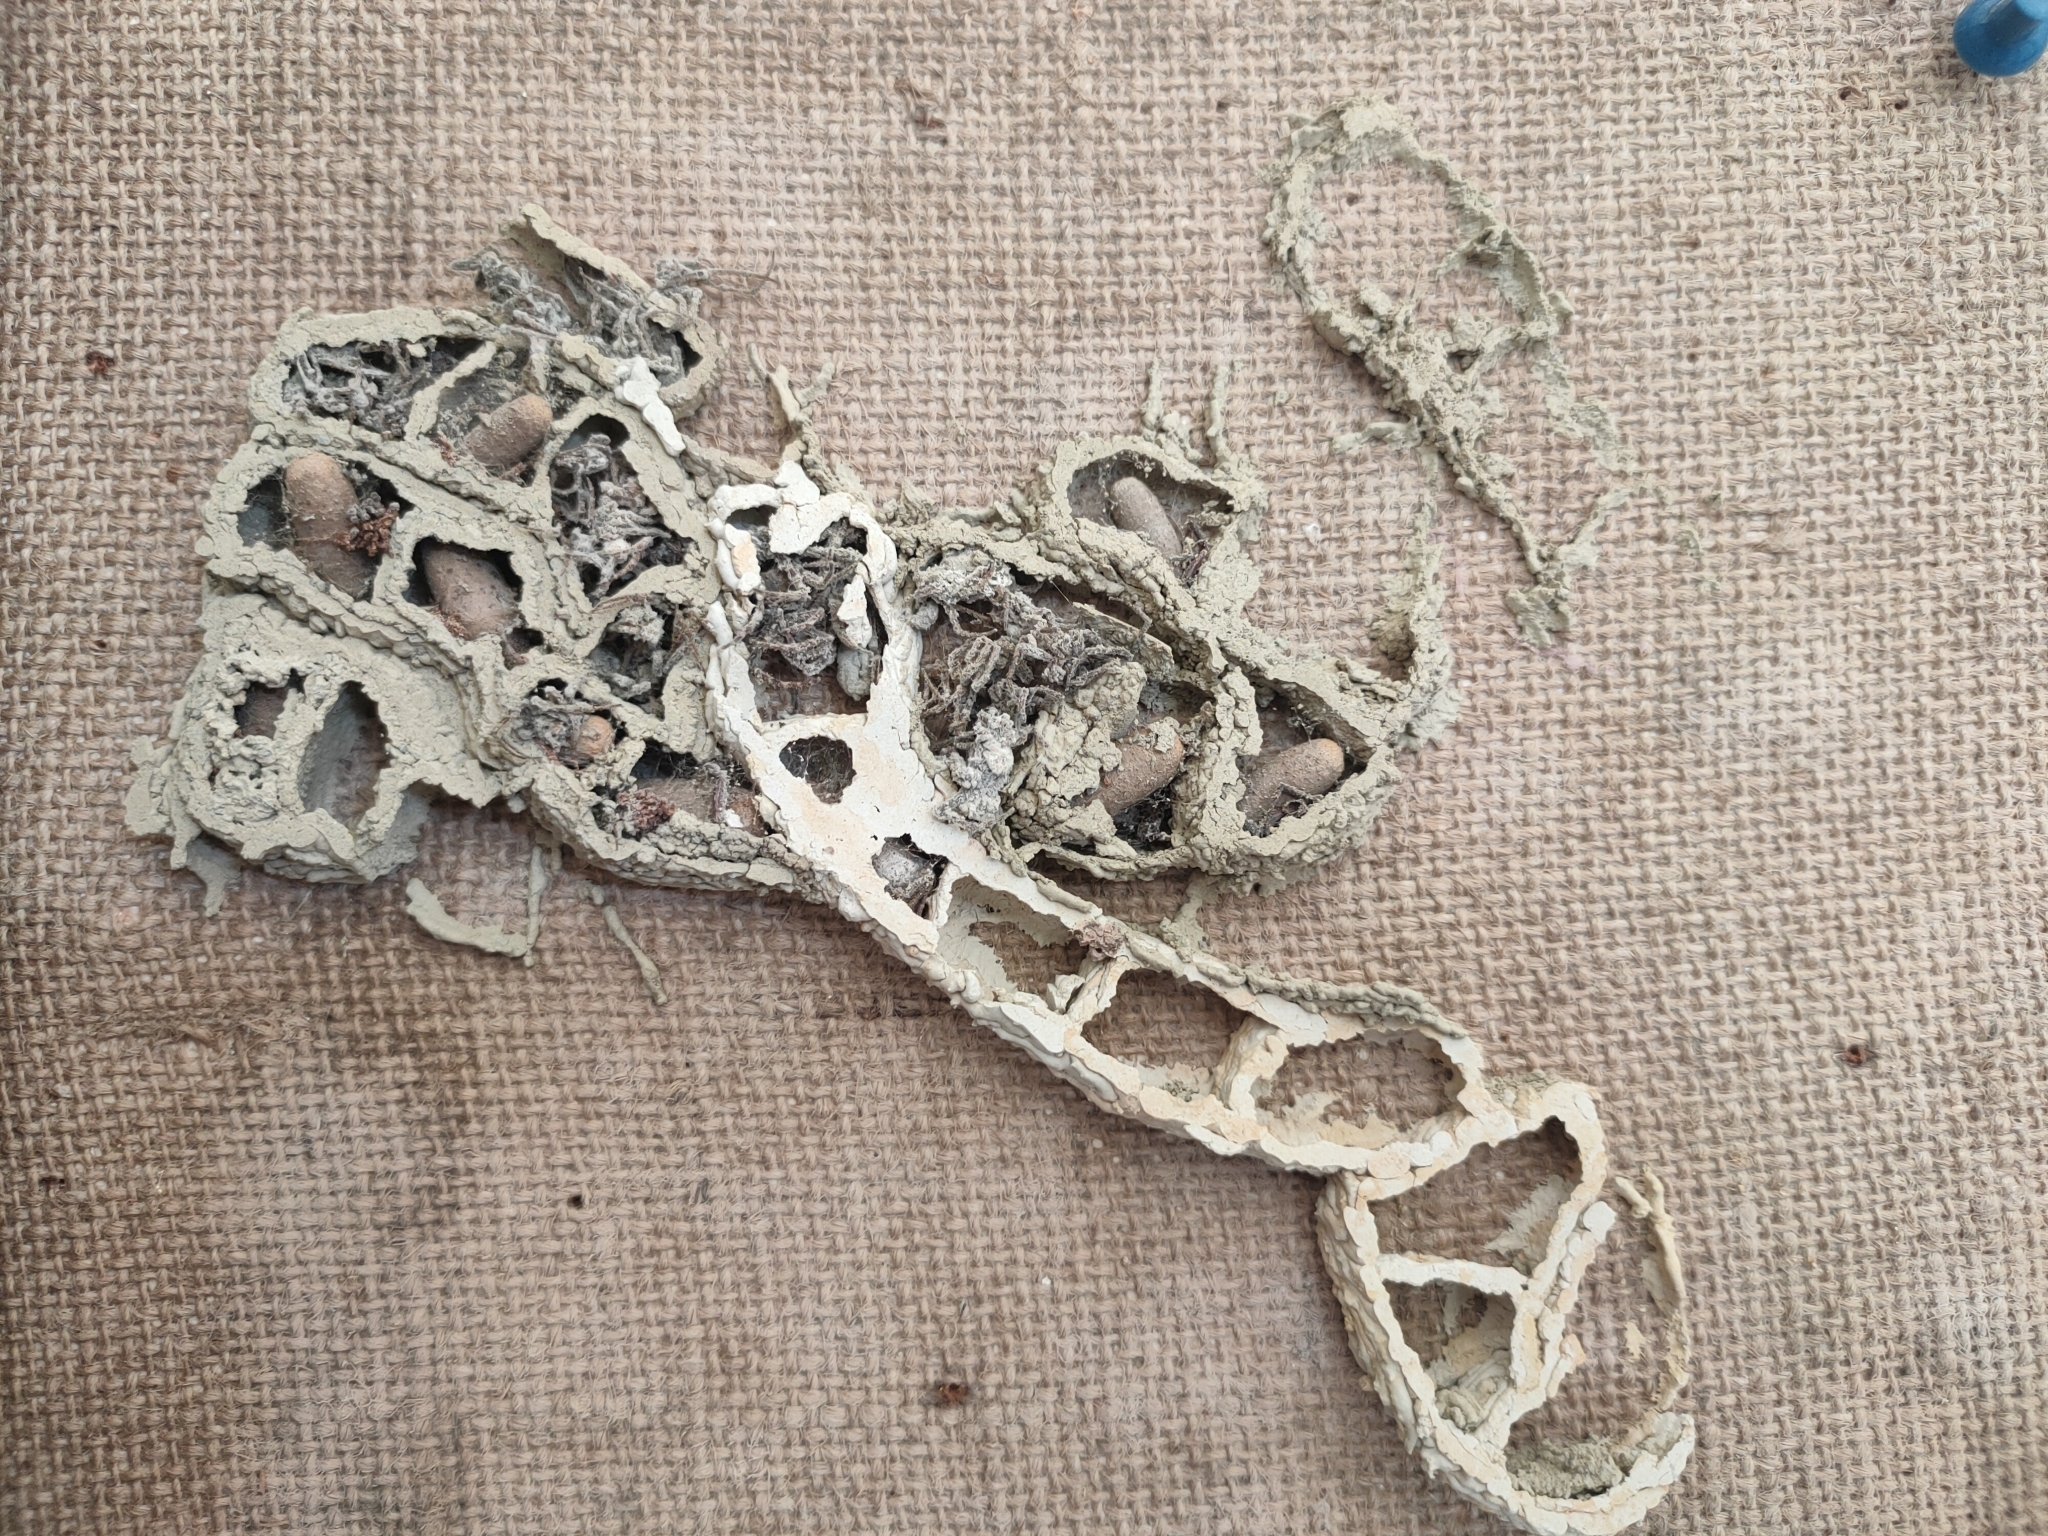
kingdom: Animalia
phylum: Arthropoda
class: Insecta
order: Hymenoptera
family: Crabronidae
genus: Pison
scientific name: Pison spinolae
